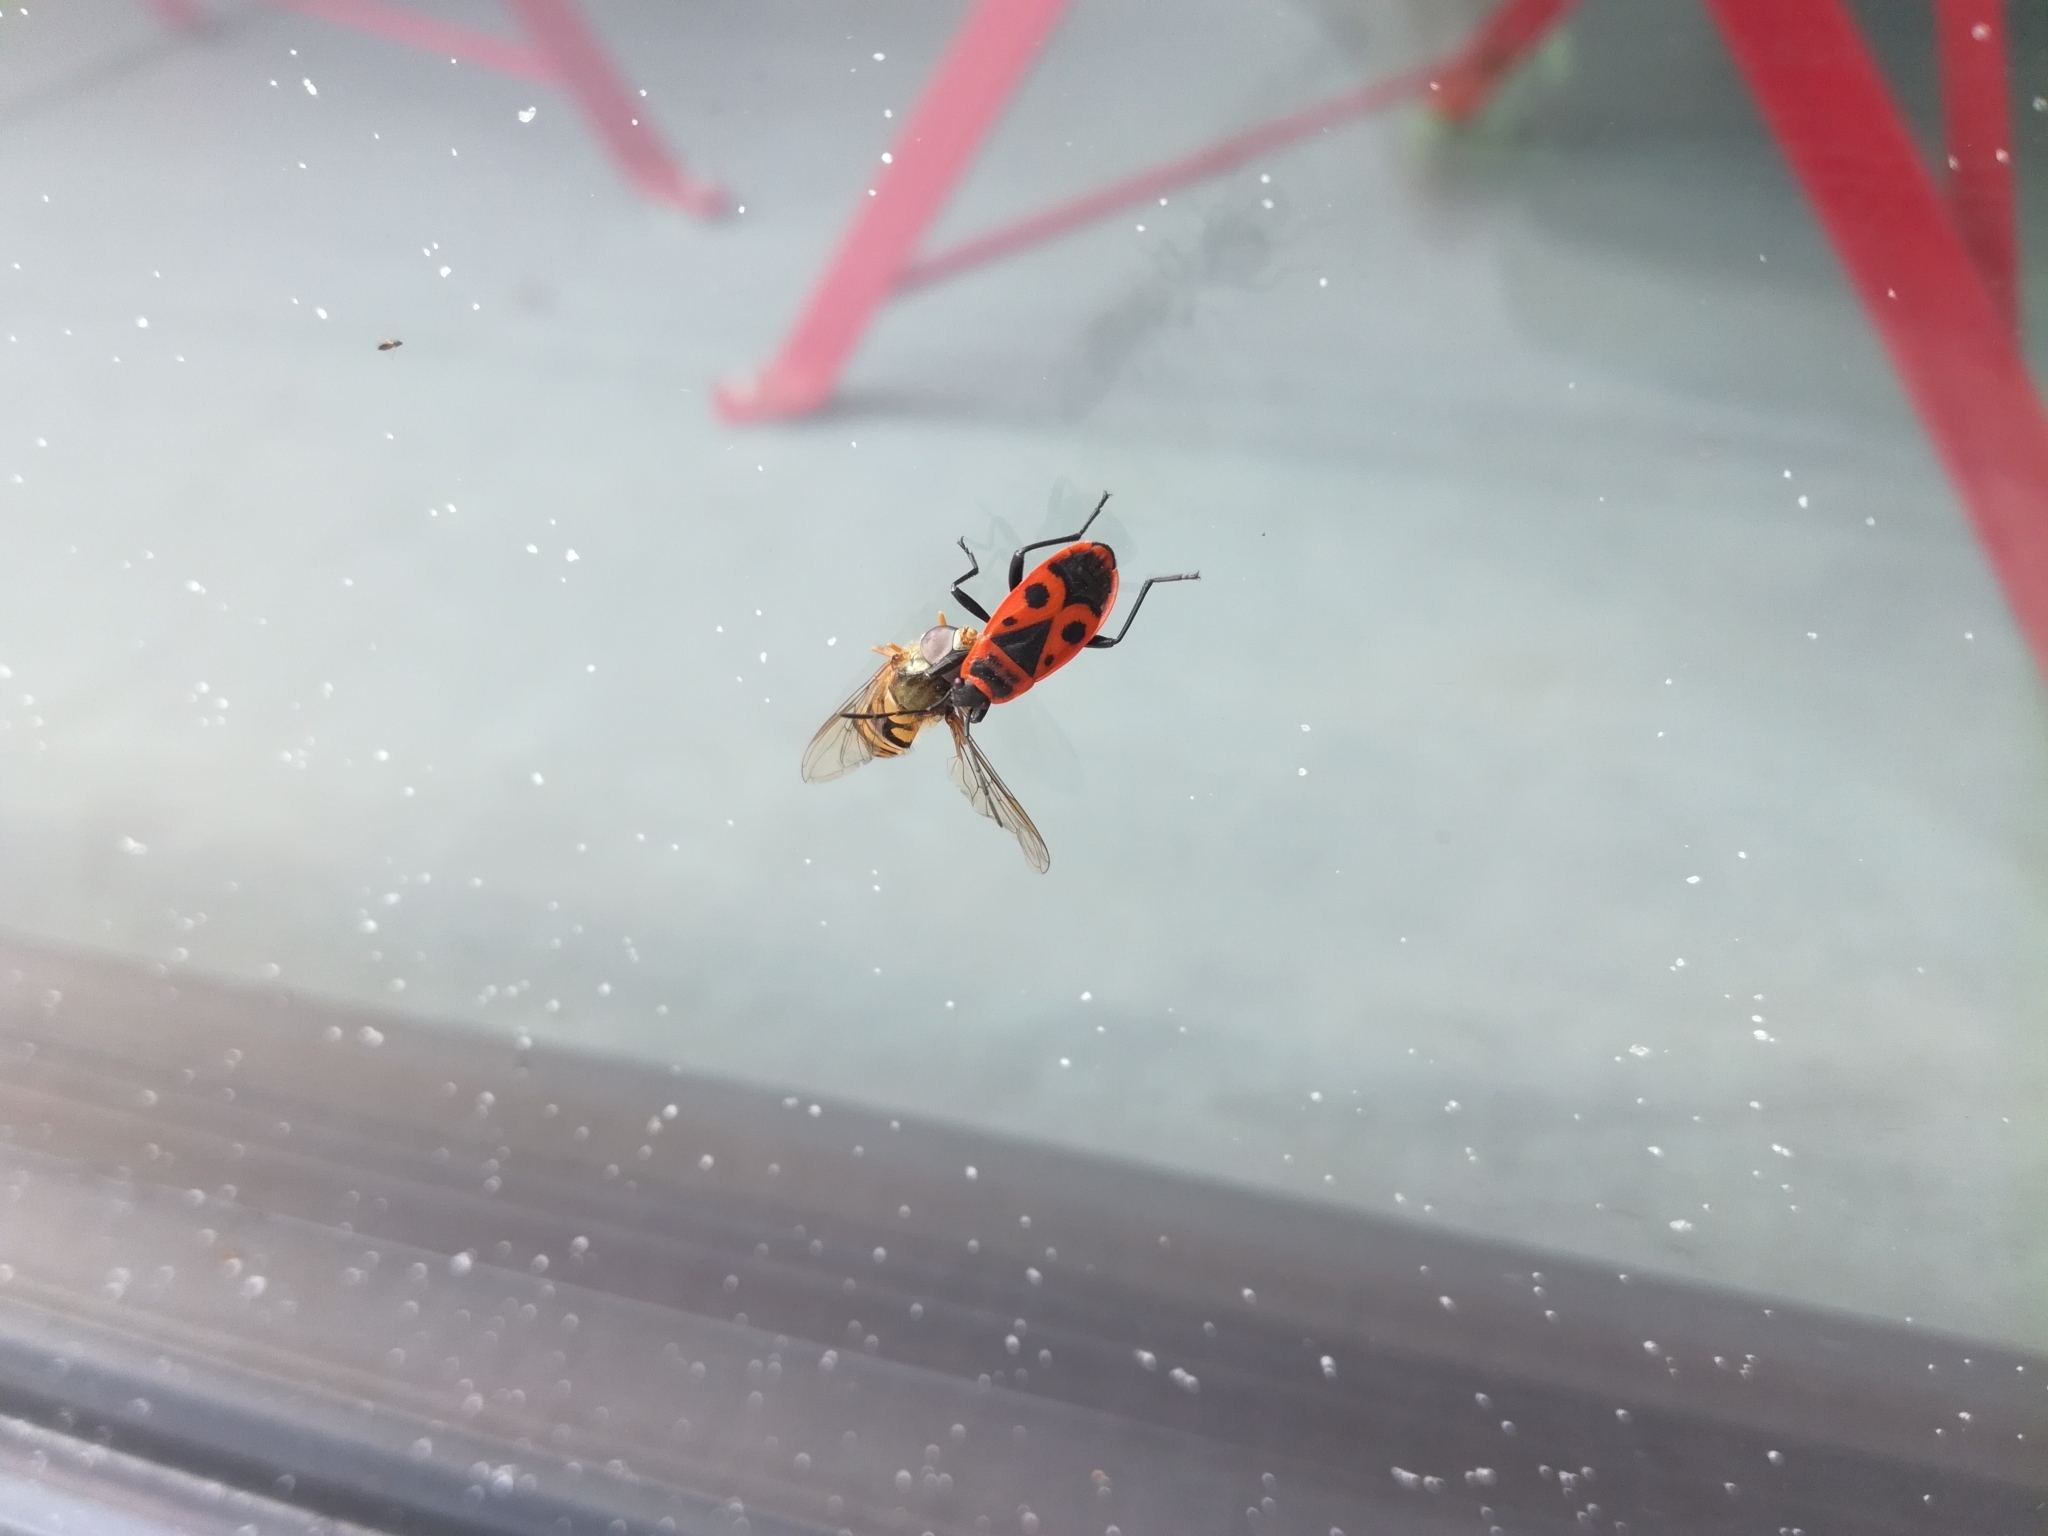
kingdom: Animalia
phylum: Arthropoda
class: Insecta
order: Hemiptera
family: Pyrrhocoridae
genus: Pyrrhocoris
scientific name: Pyrrhocoris apterus
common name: Firebug
